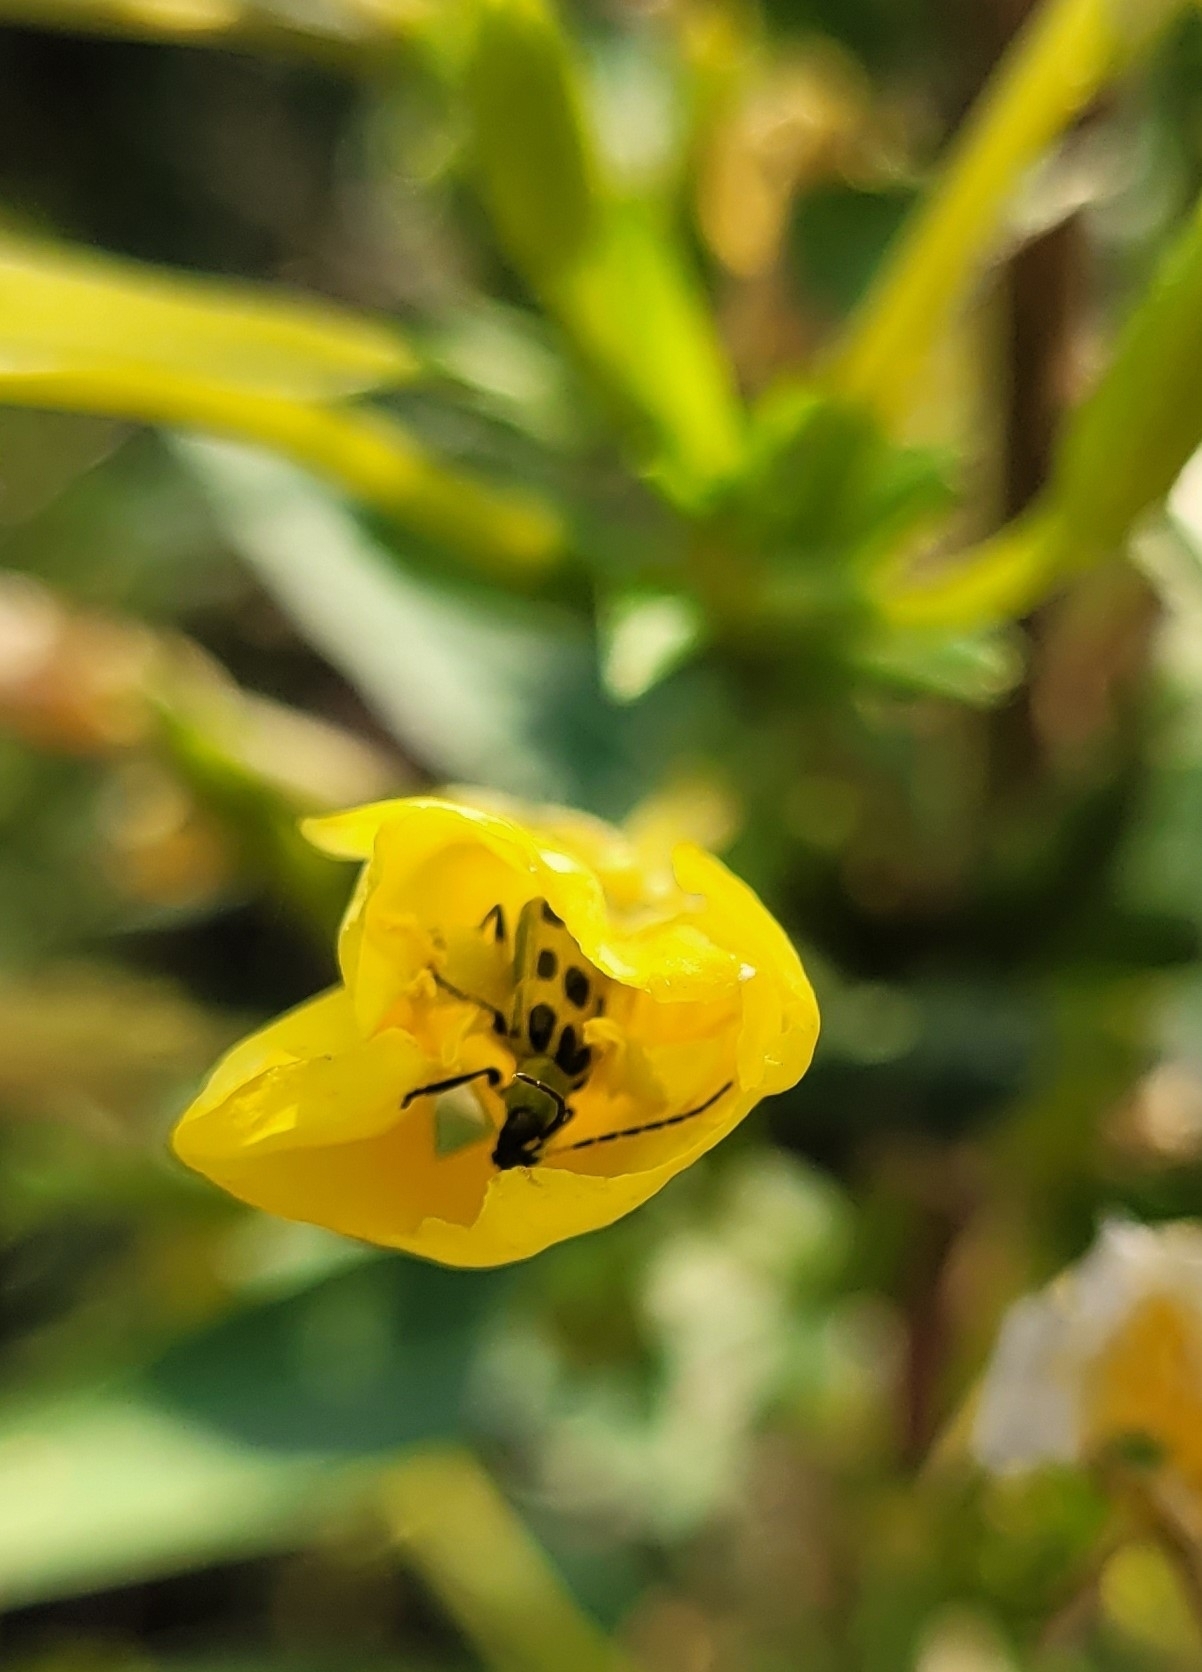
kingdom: Animalia
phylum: Arthropoda
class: Insecta
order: Coleoptera
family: Chrysomelidae
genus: Diabrotica
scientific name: Diabrotica undecimpunctata
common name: Spotted cucumber beetle
